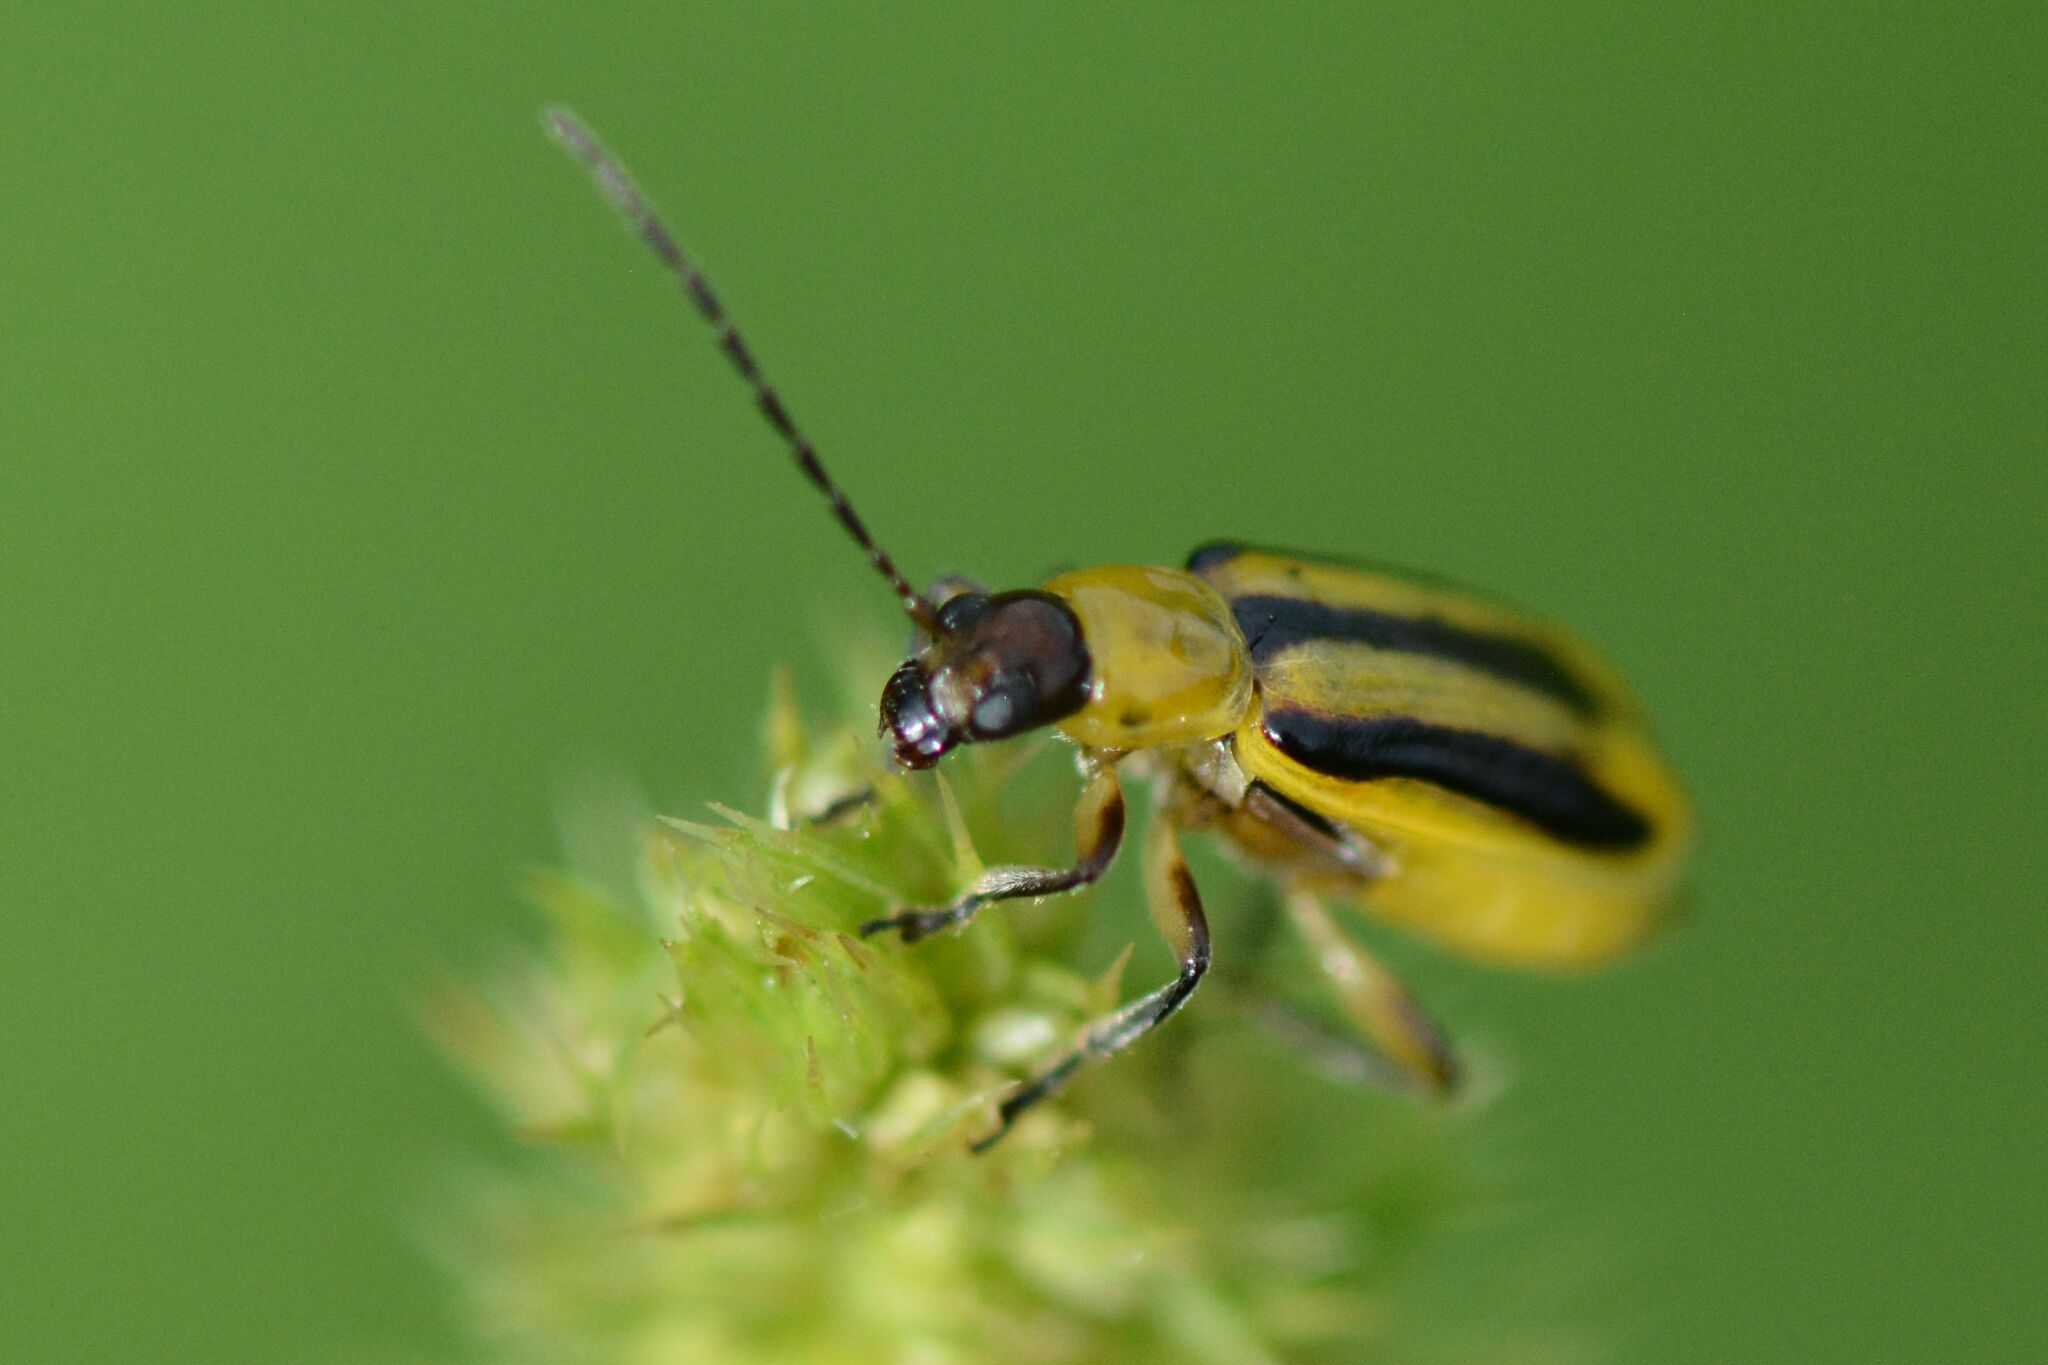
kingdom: Animalia
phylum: Arthropoda
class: Insecta
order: Coleoptera
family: Chrysomelidae
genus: Diabrotica
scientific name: Diabrotica virgifera
